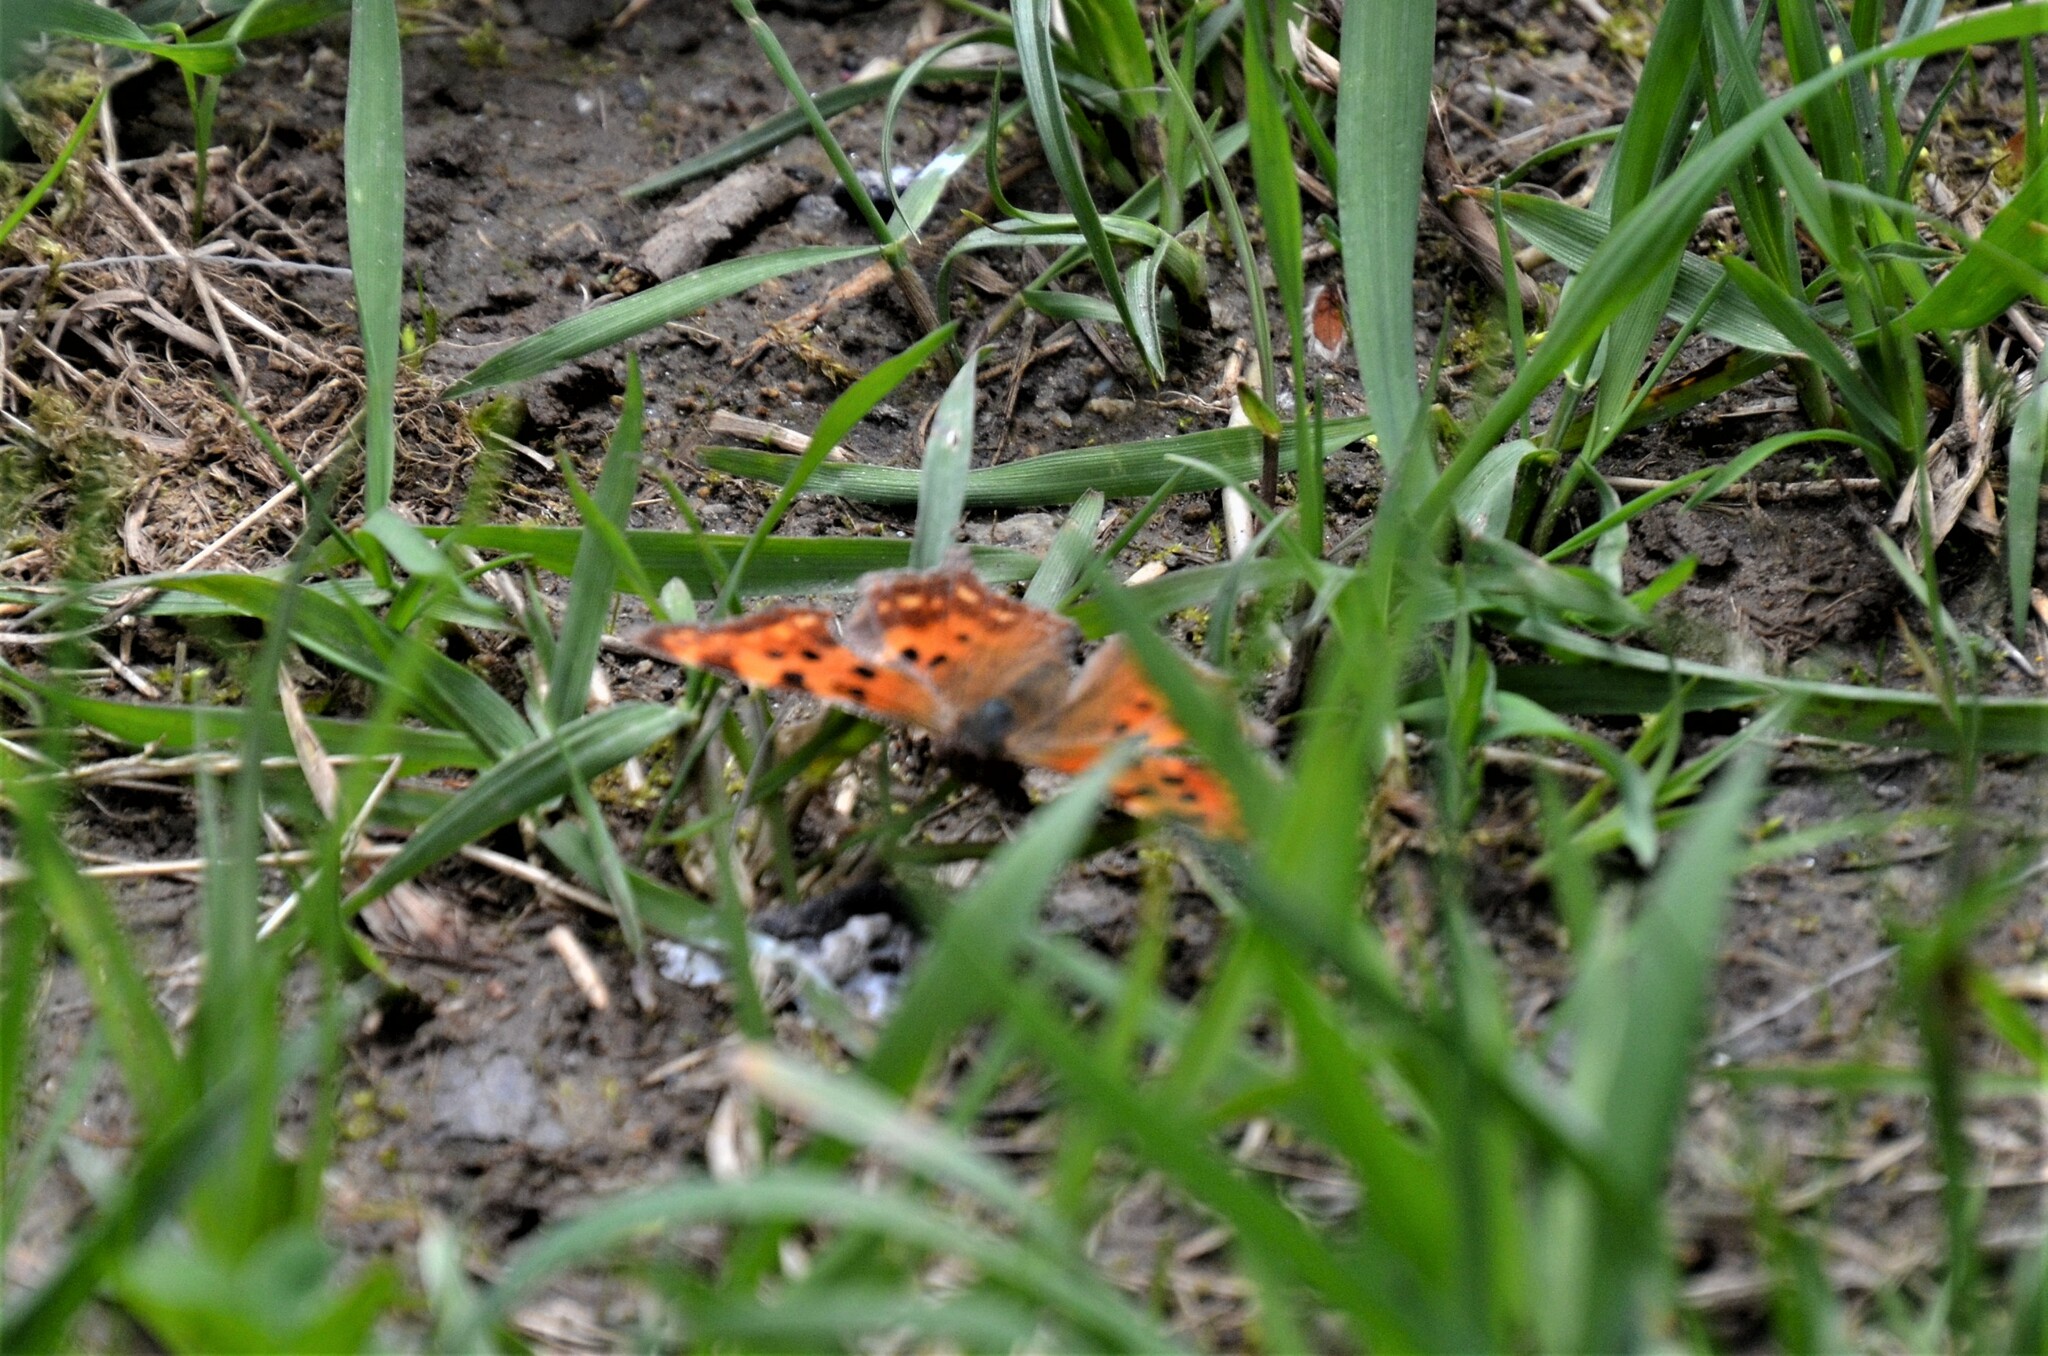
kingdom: Animalia
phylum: Arthropoda
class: Insecta
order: Lepidoptera
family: Nymphalidae
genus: Polygonia
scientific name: Polygonia c-album
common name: Comma
